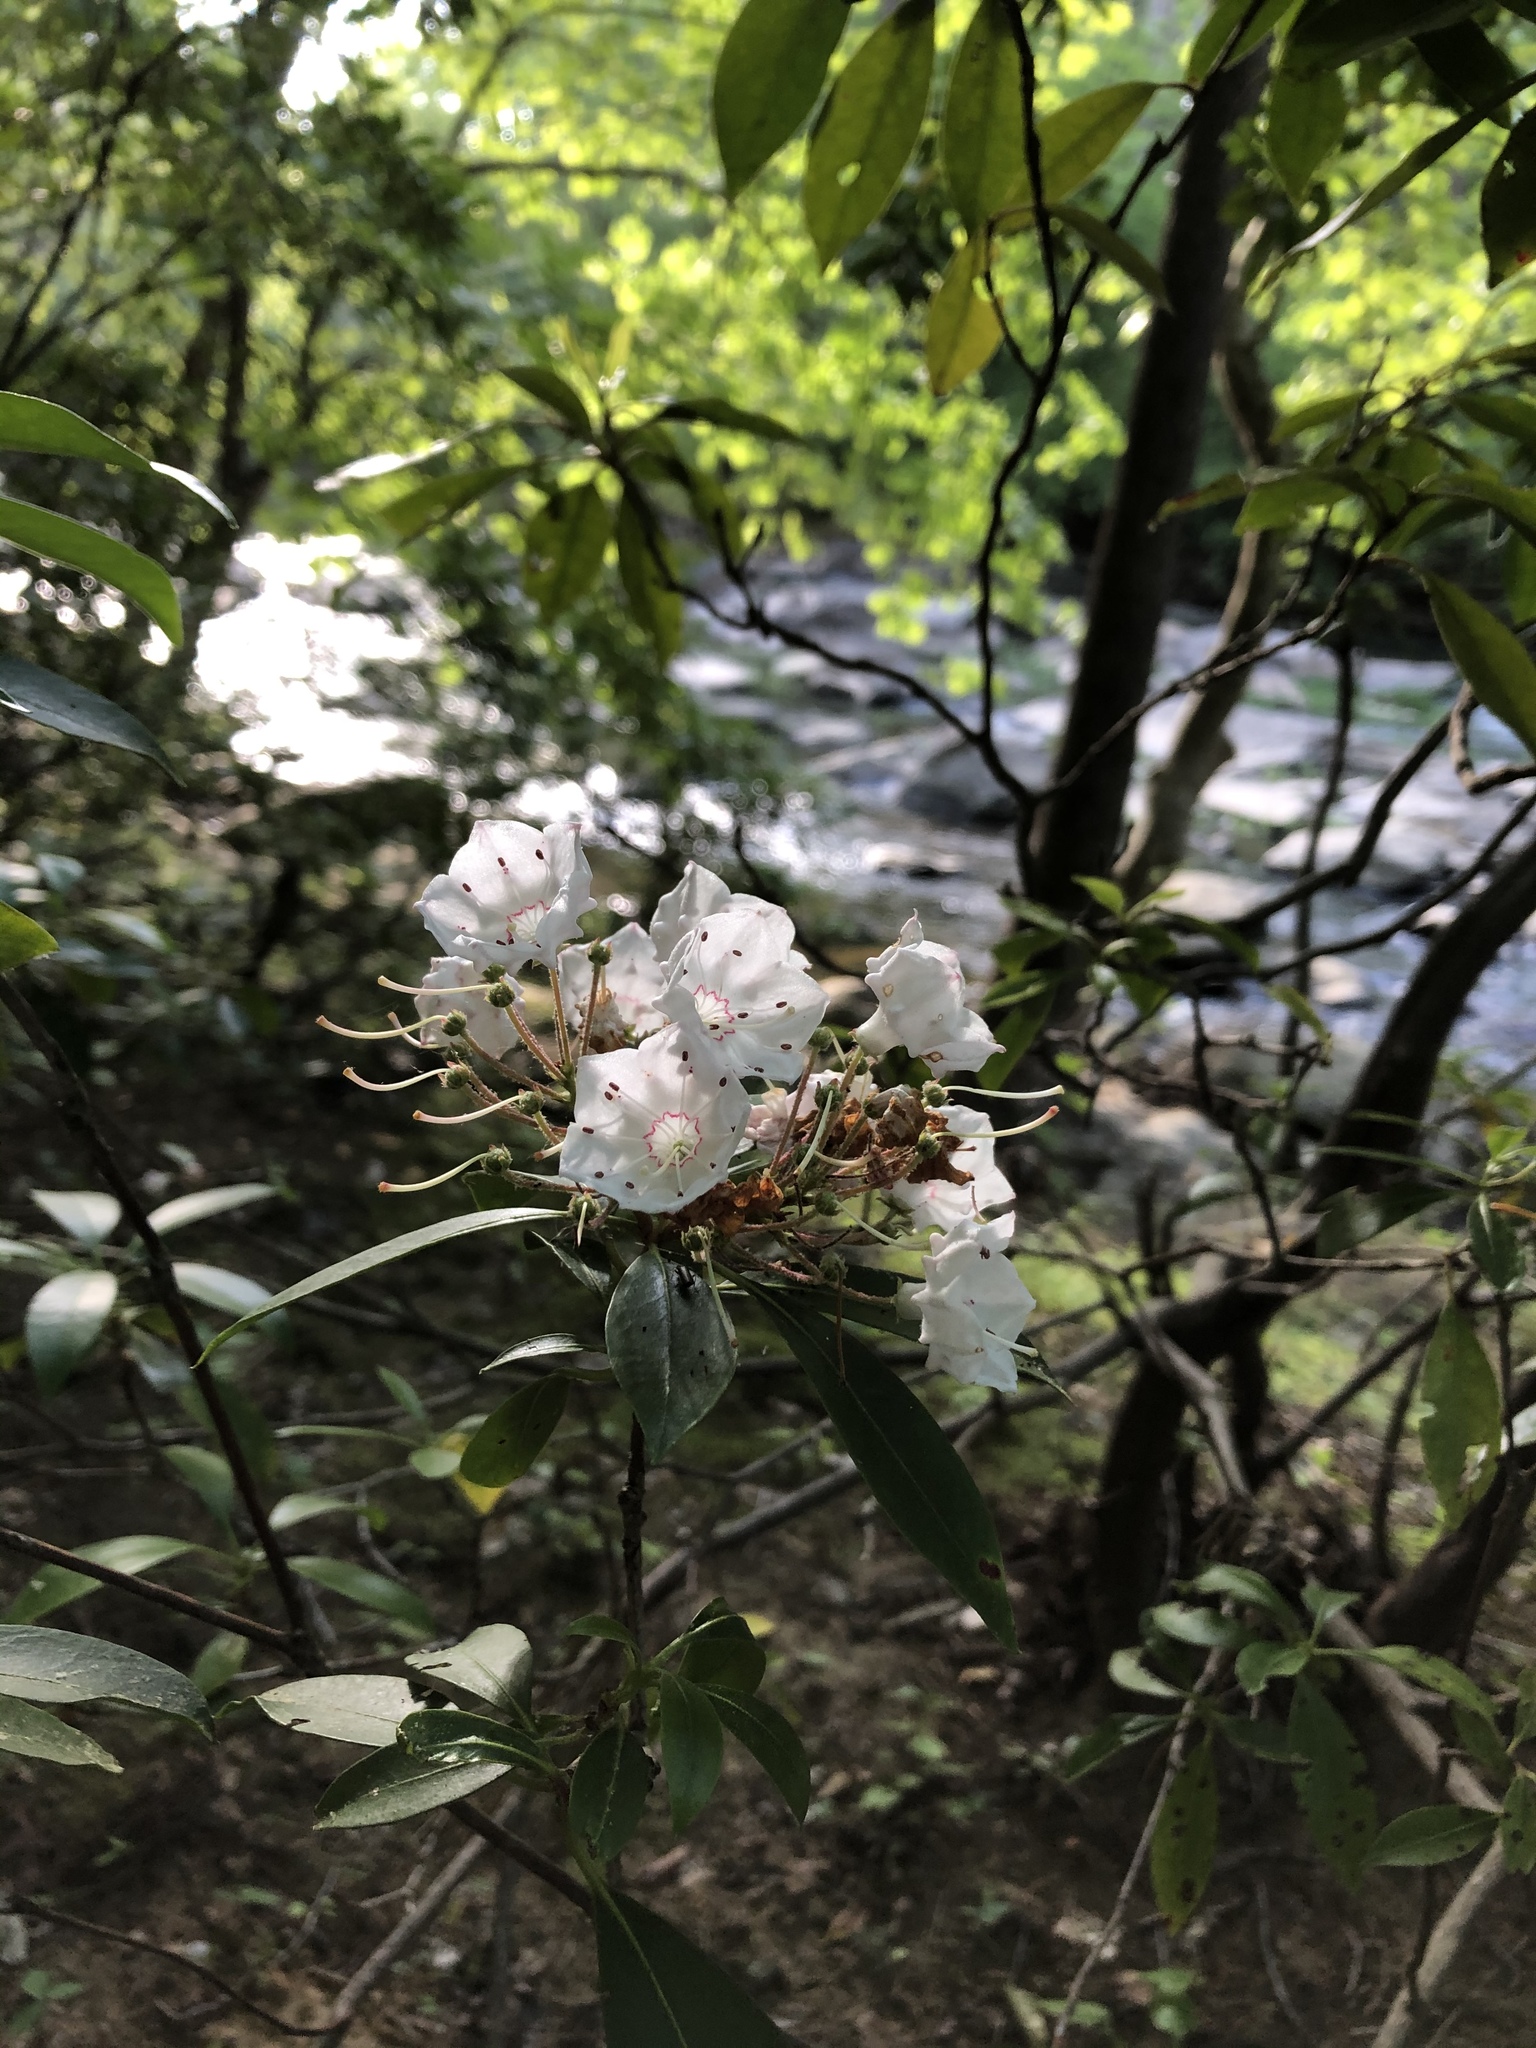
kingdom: Plantae
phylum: Tracheophyta
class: Magnoliopsida
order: Ericales
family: Ericaceae
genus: Kalmia
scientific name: Kalmia latifolia
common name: Mountain-laurel
